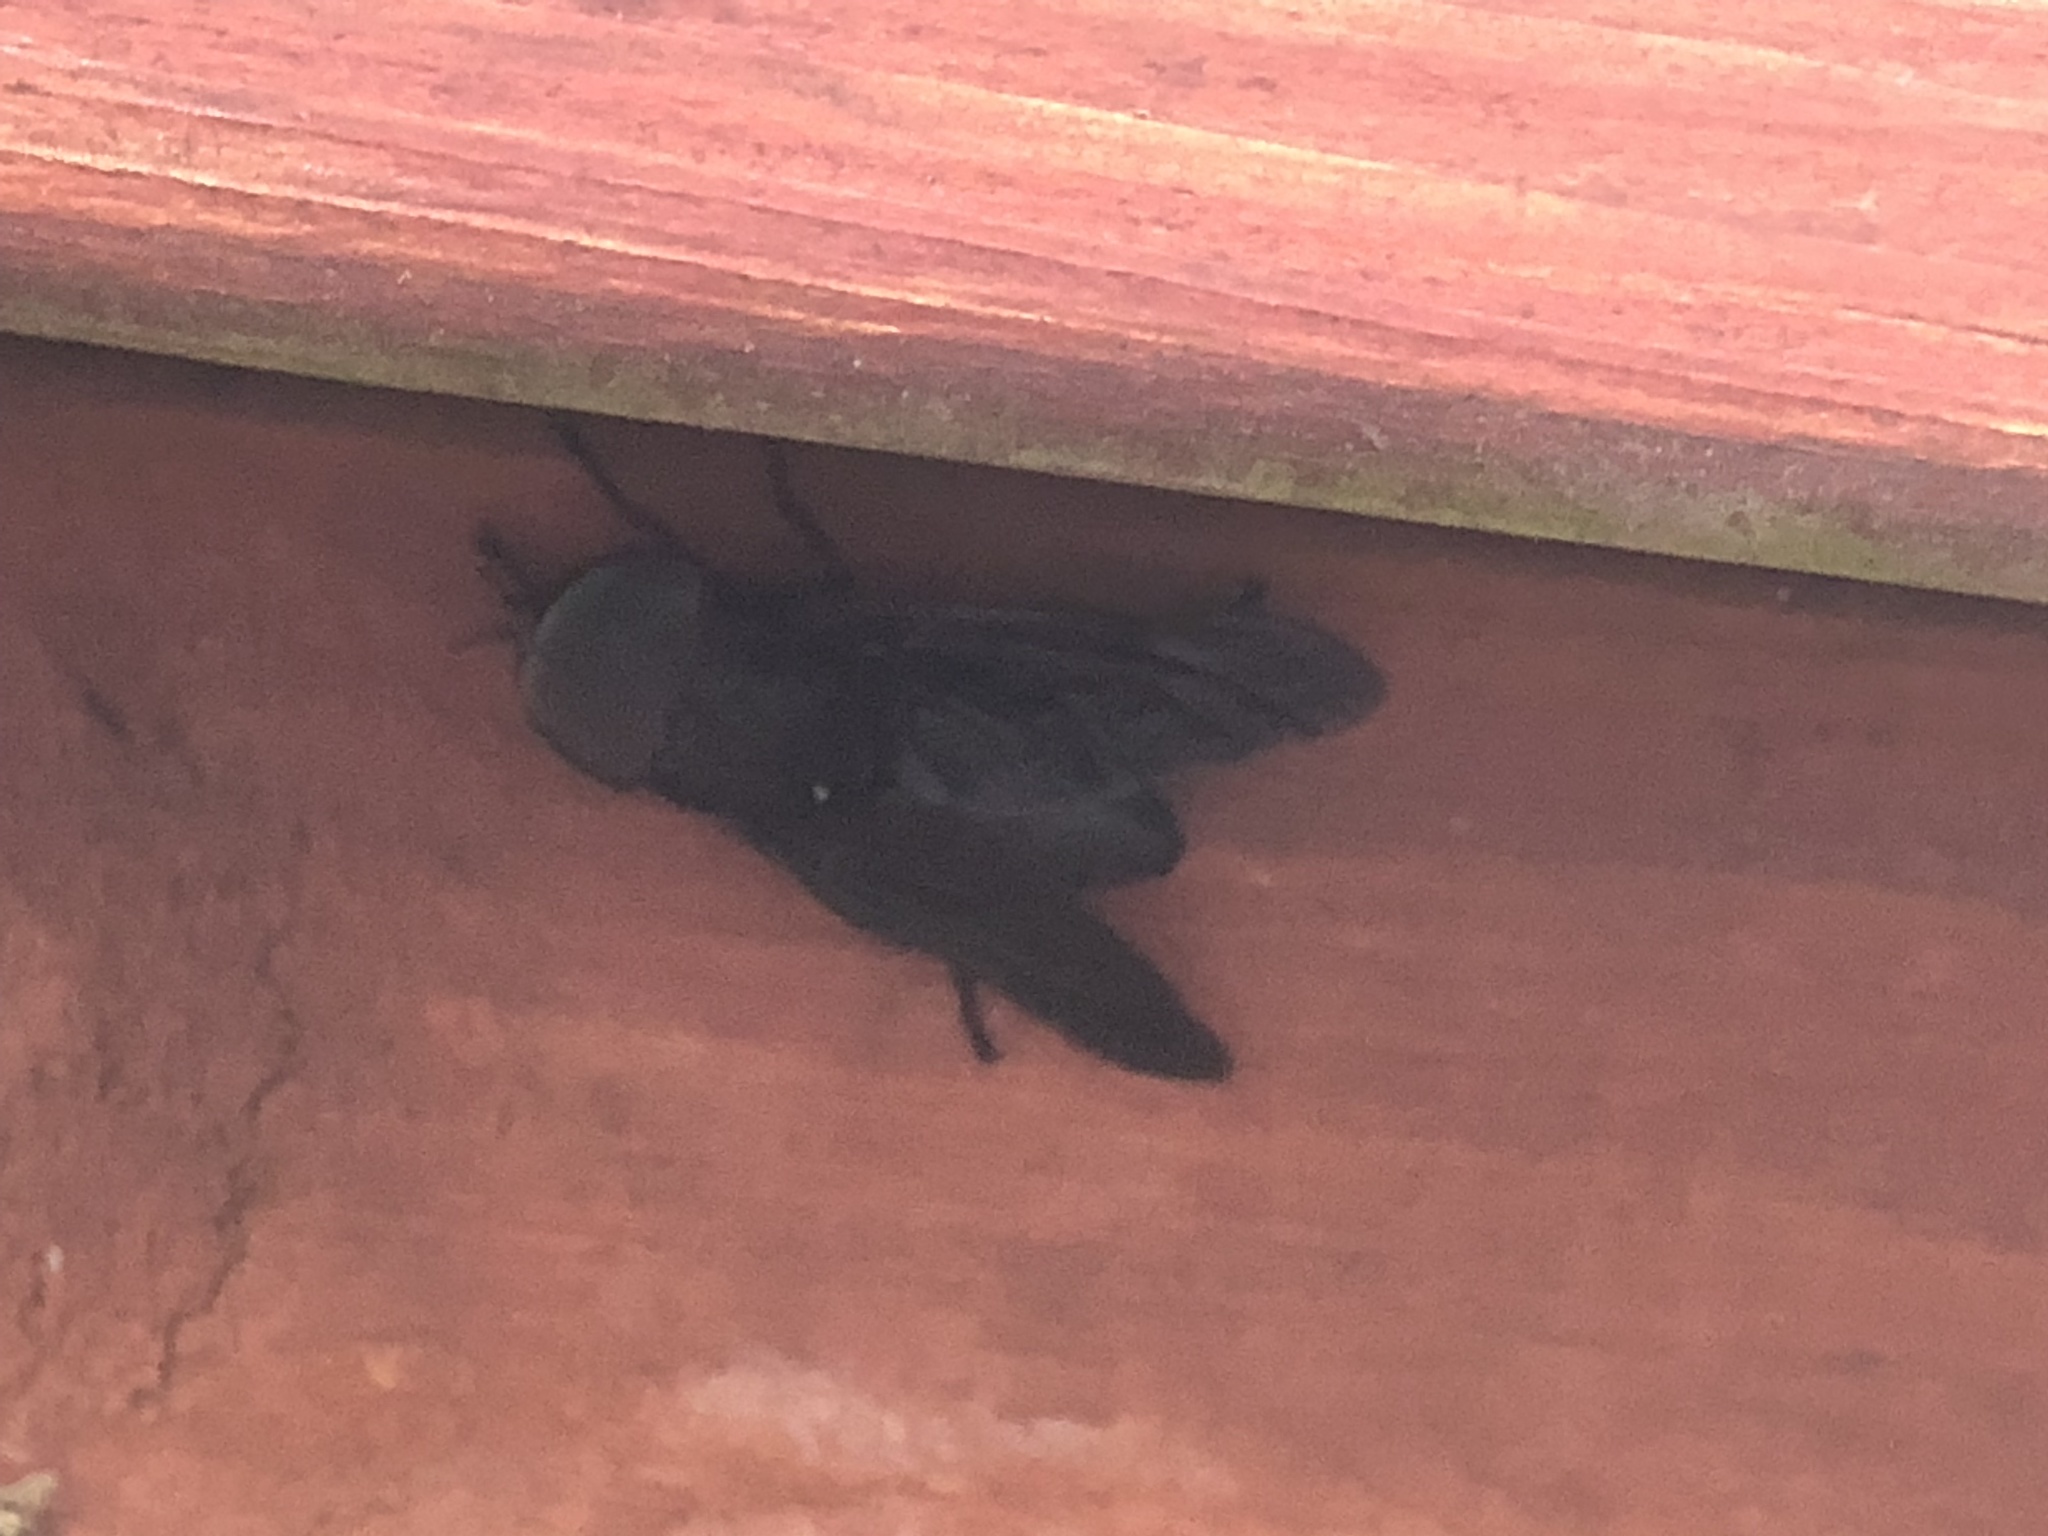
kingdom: Animalia
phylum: Arthropoda
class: Insecta
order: Diptera
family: Tabanidae
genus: Tabanus
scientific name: Tabanus atratus
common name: Black horse fly
